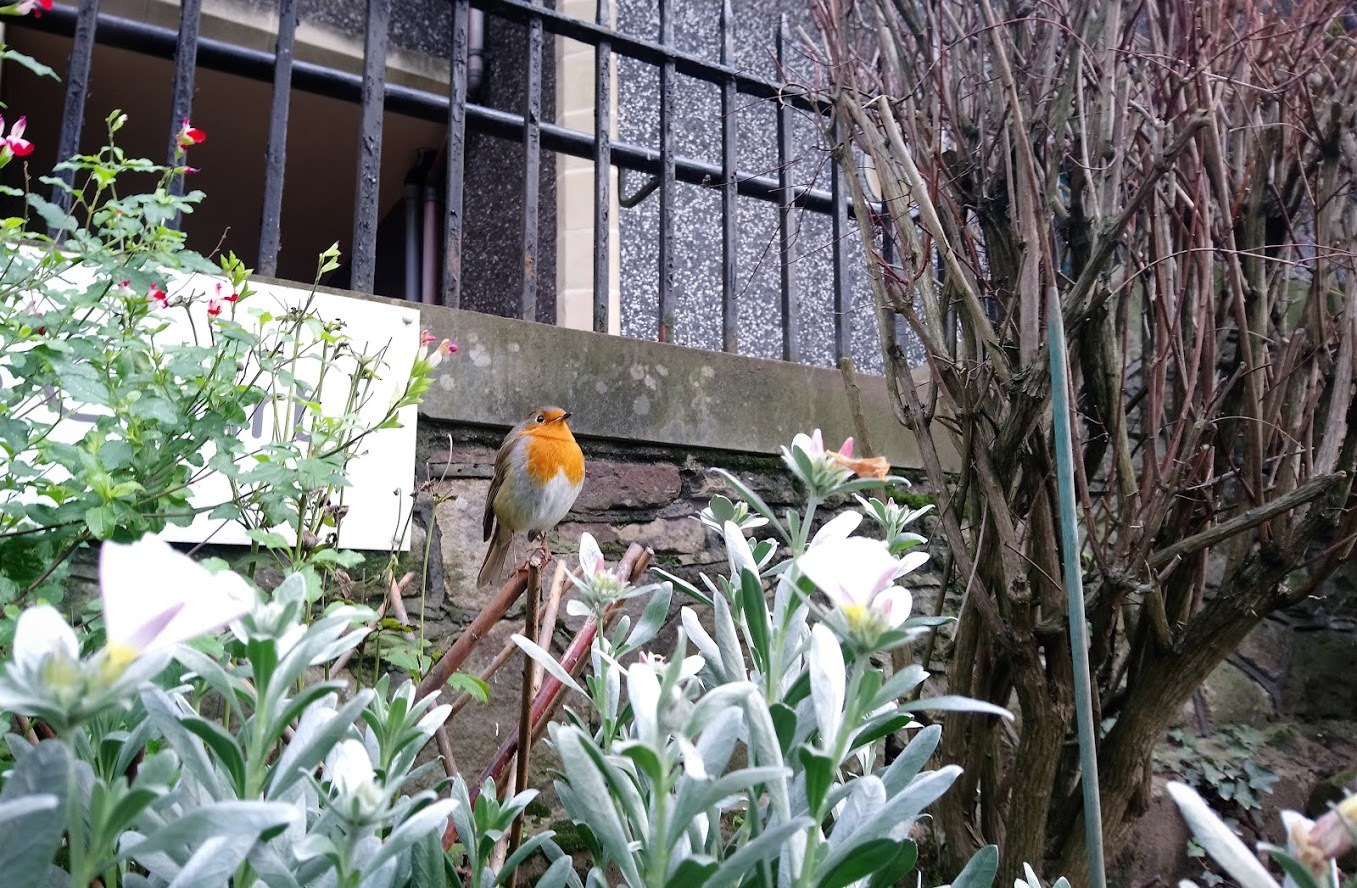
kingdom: Animalia
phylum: Chordata
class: Aves
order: Passeriformes
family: Muscicapidae
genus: Erithacus
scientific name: Erithacus rubecula
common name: European robin
